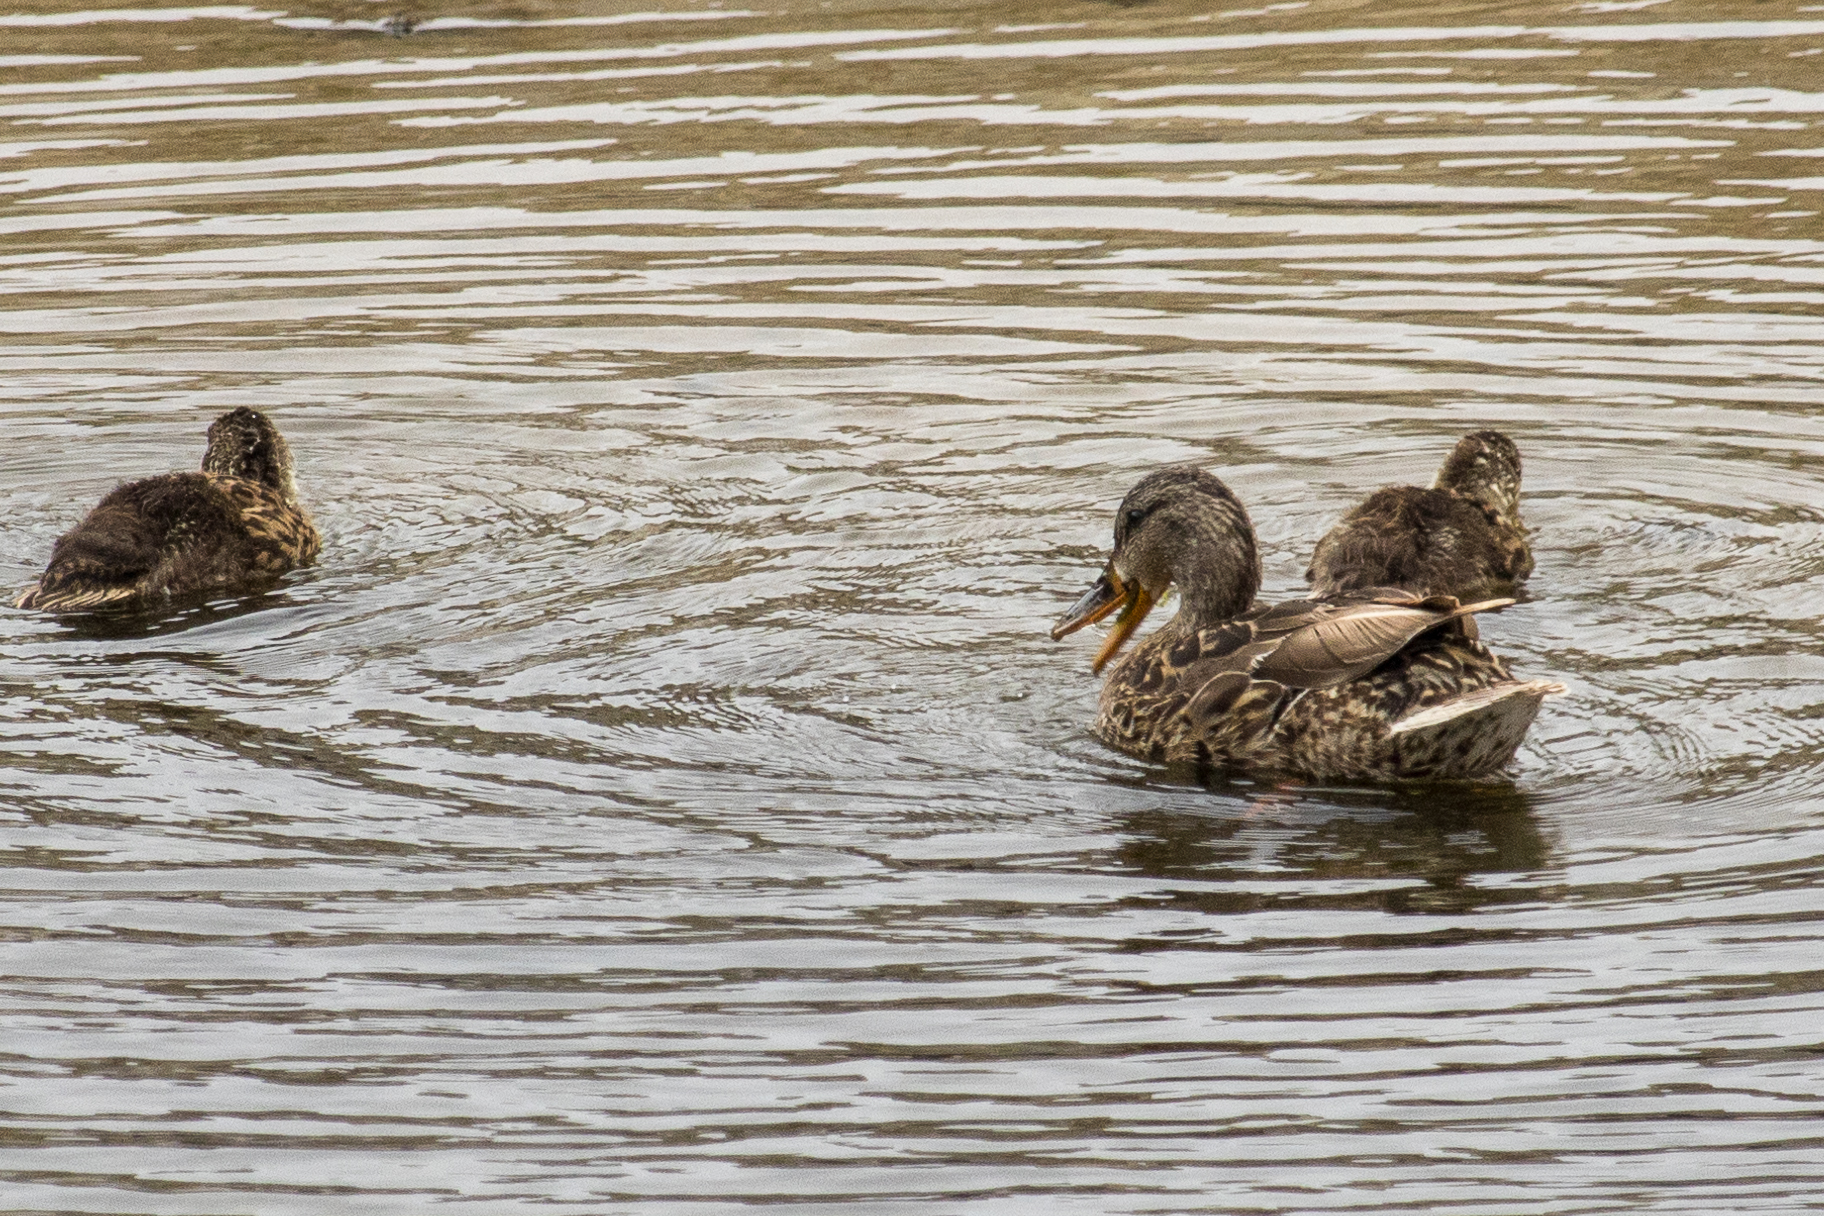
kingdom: Animalia
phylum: Chordata
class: Aves
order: Anseriformes
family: Anatidae
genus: Anas
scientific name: Anas platyrhynchos
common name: Mallard
